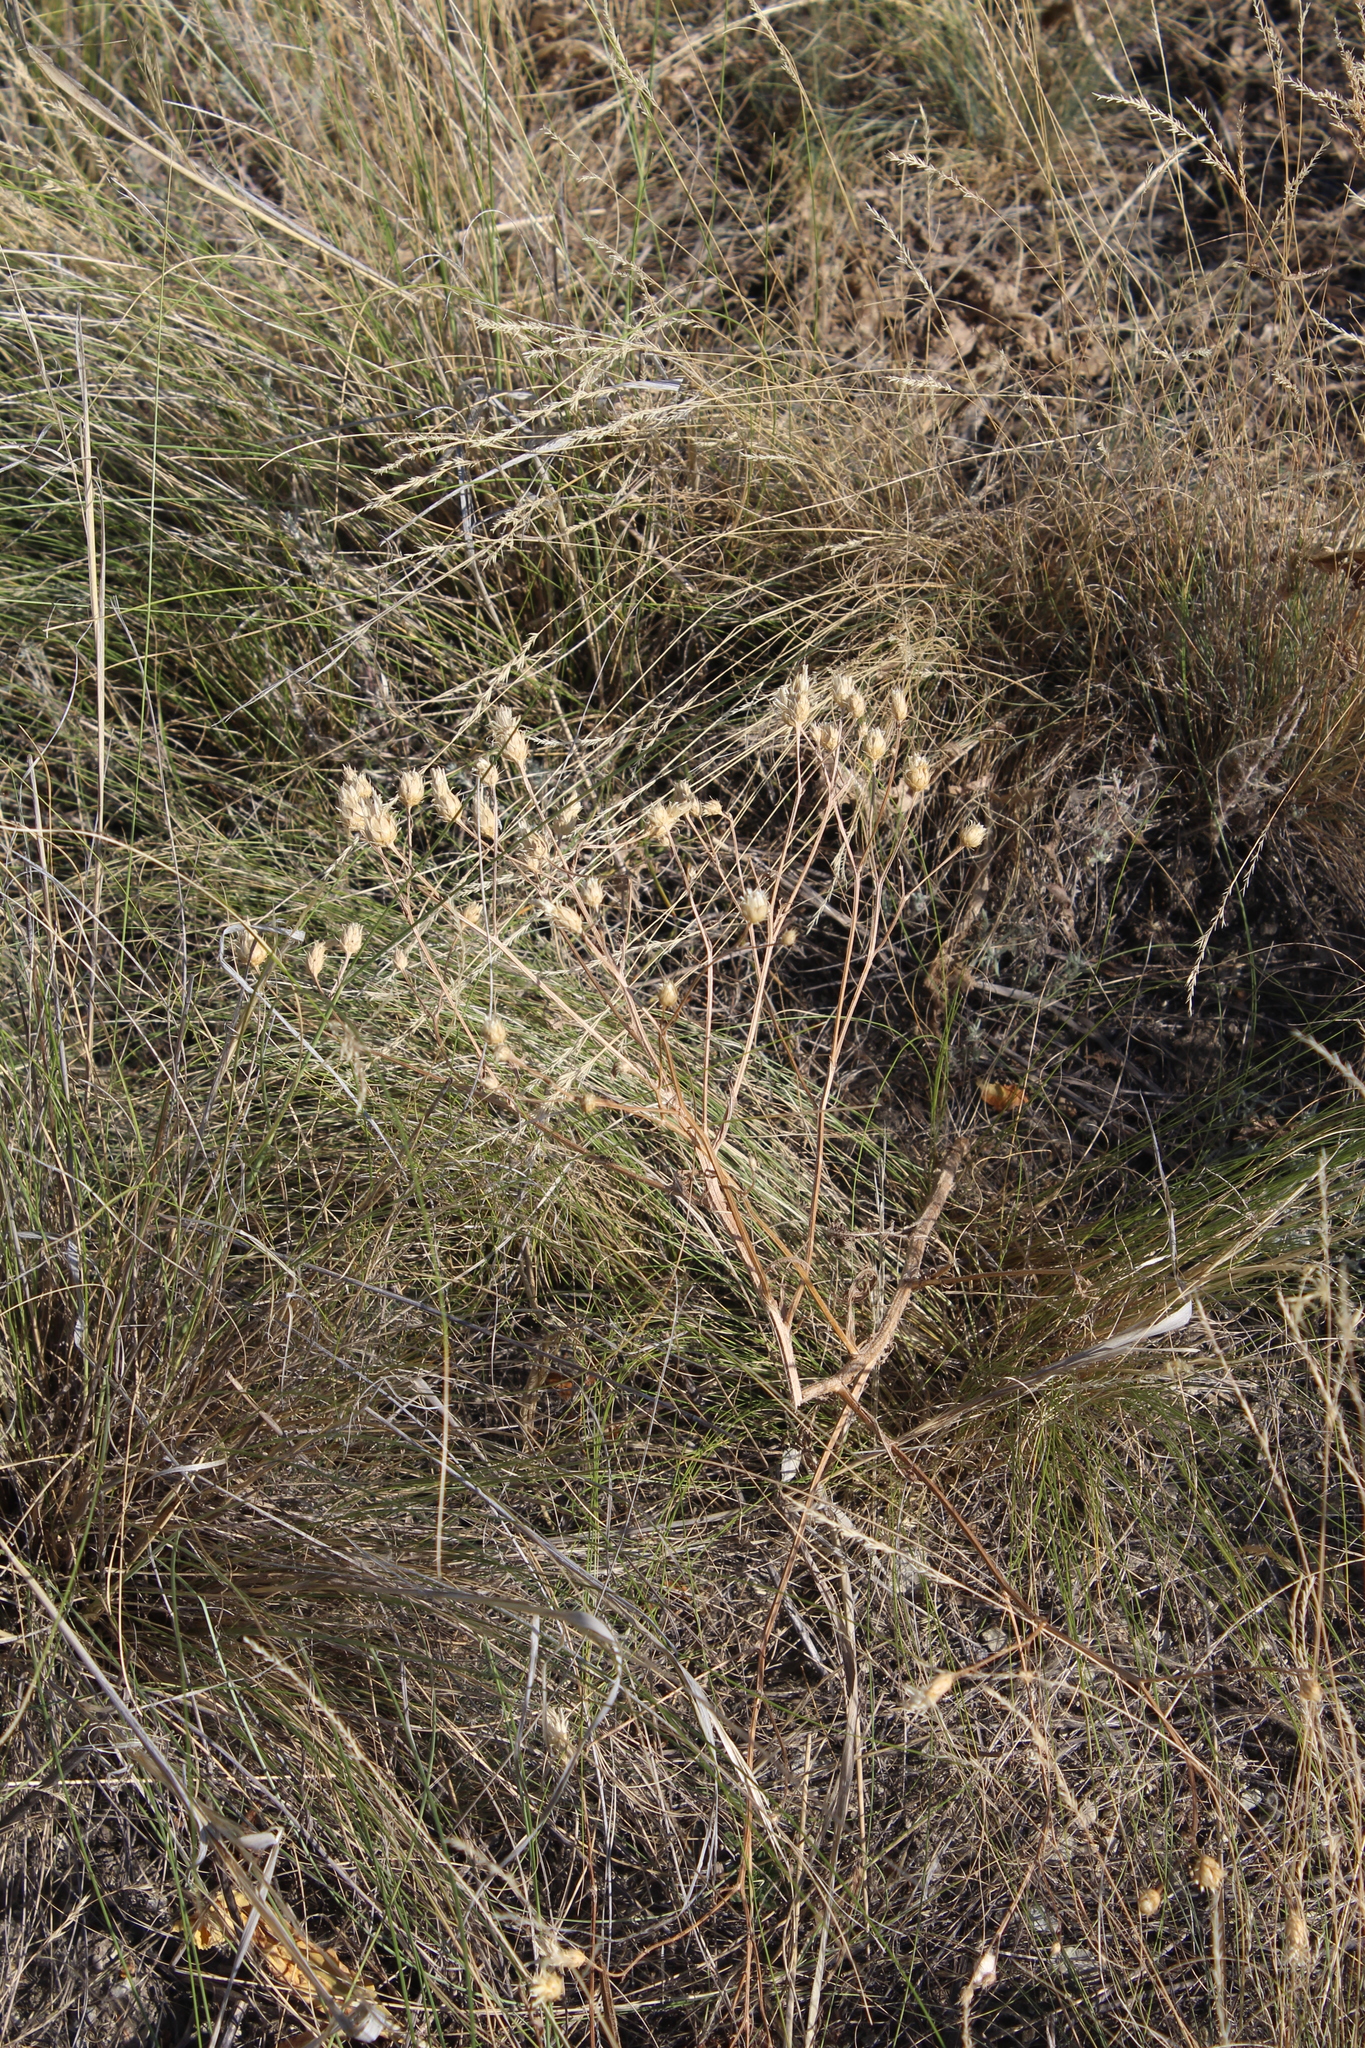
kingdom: Plantae
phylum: Tracheophyta
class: Magnoliopsida
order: Asterales
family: Asteraceae
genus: Klasea
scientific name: Klasea erucifolia
